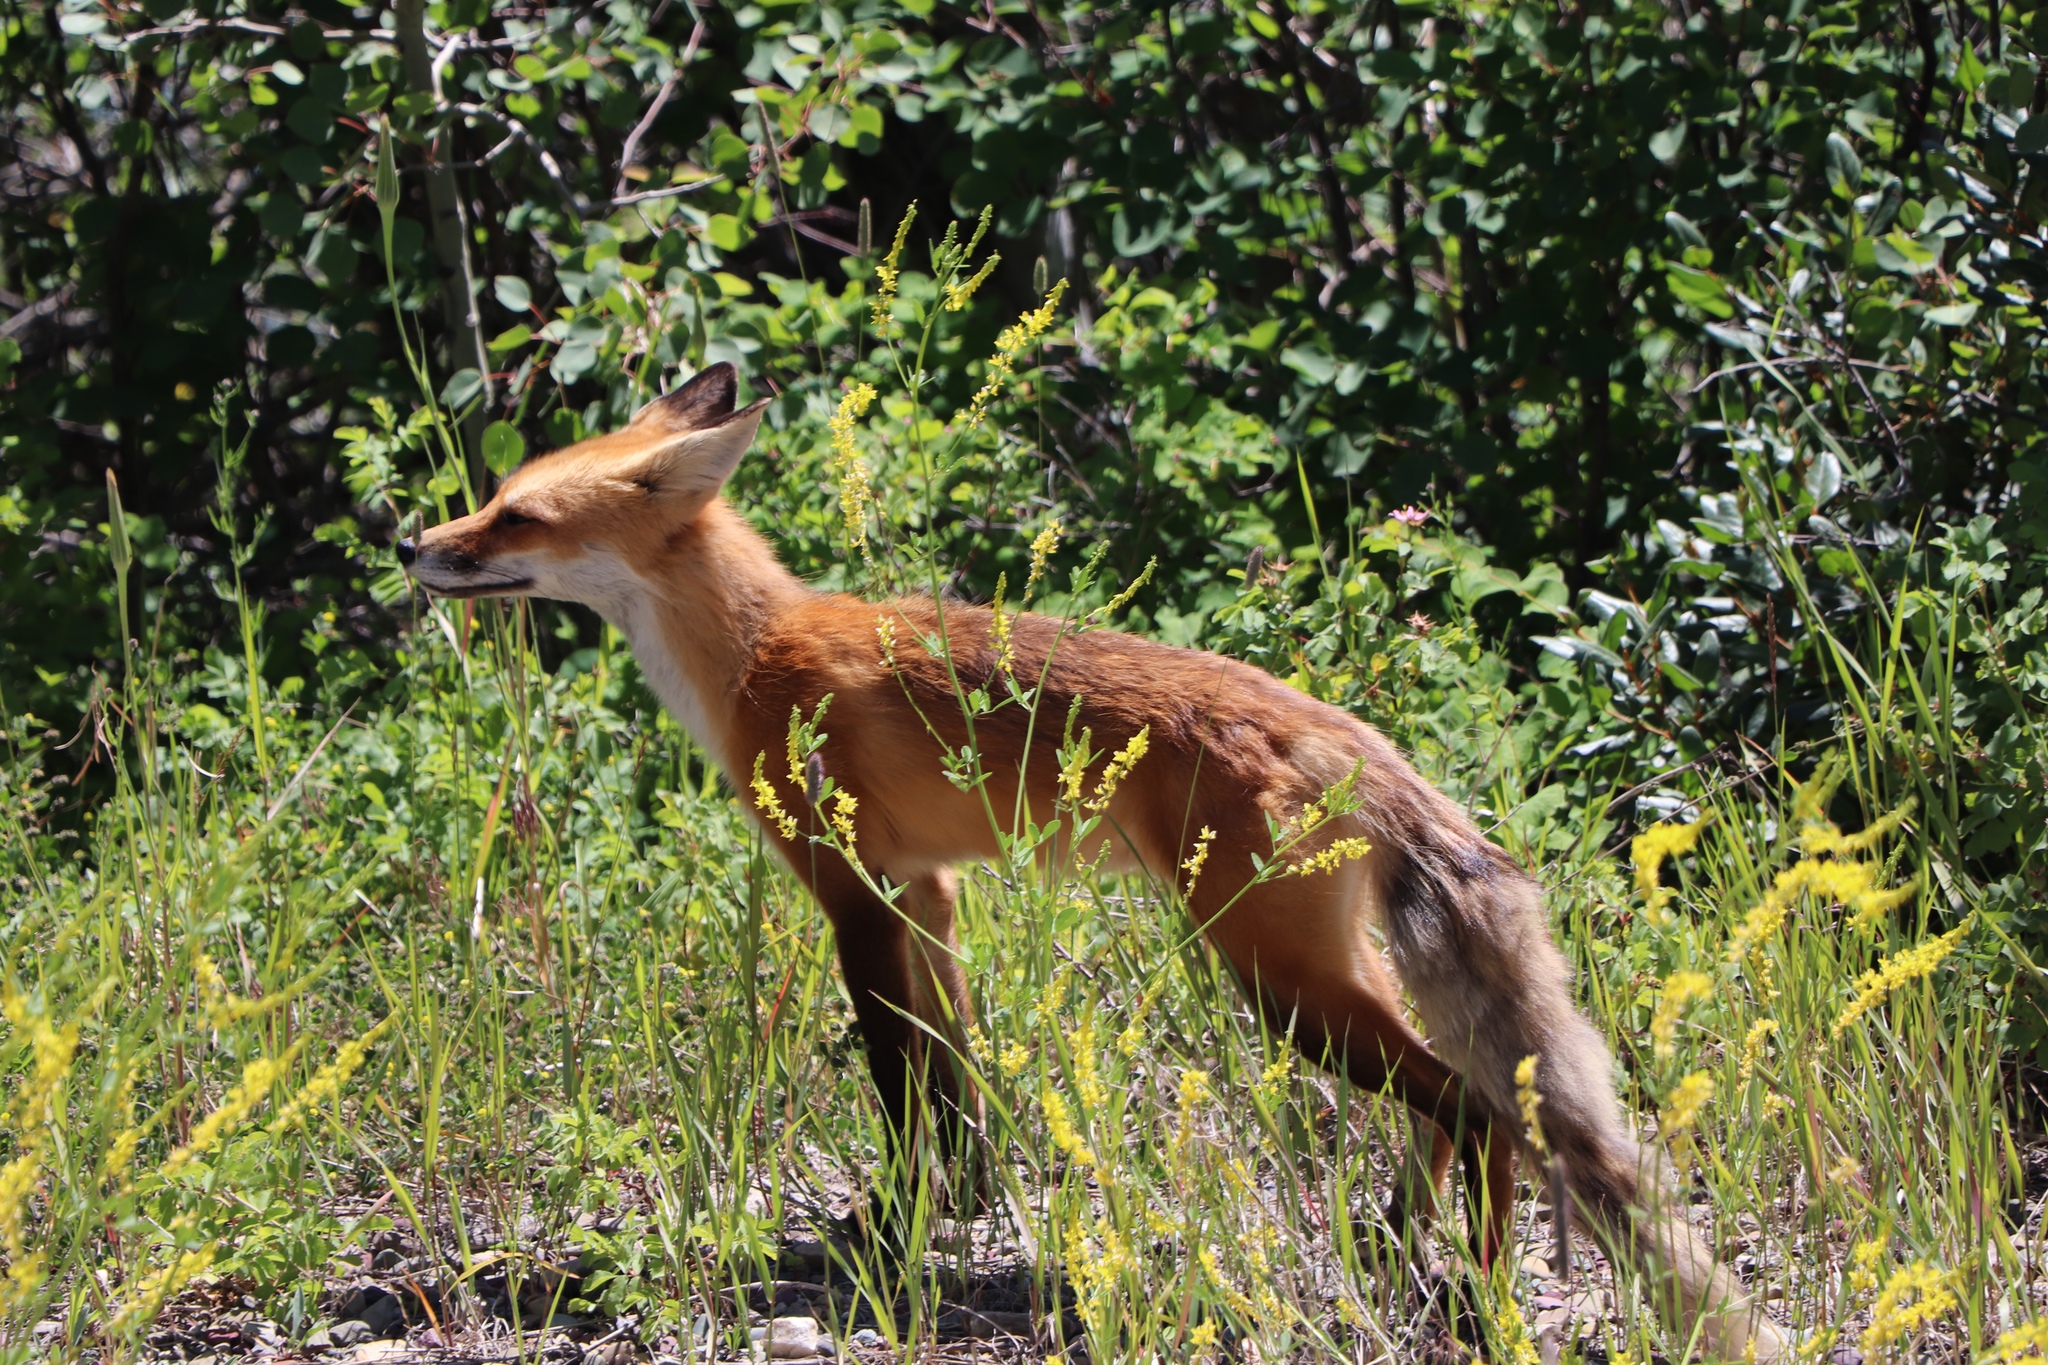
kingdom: Animalia
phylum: Chordata
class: Mammalia
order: Carnivora
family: Canidae
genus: Vulpes
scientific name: Vulpes vulpes
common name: Red fox
